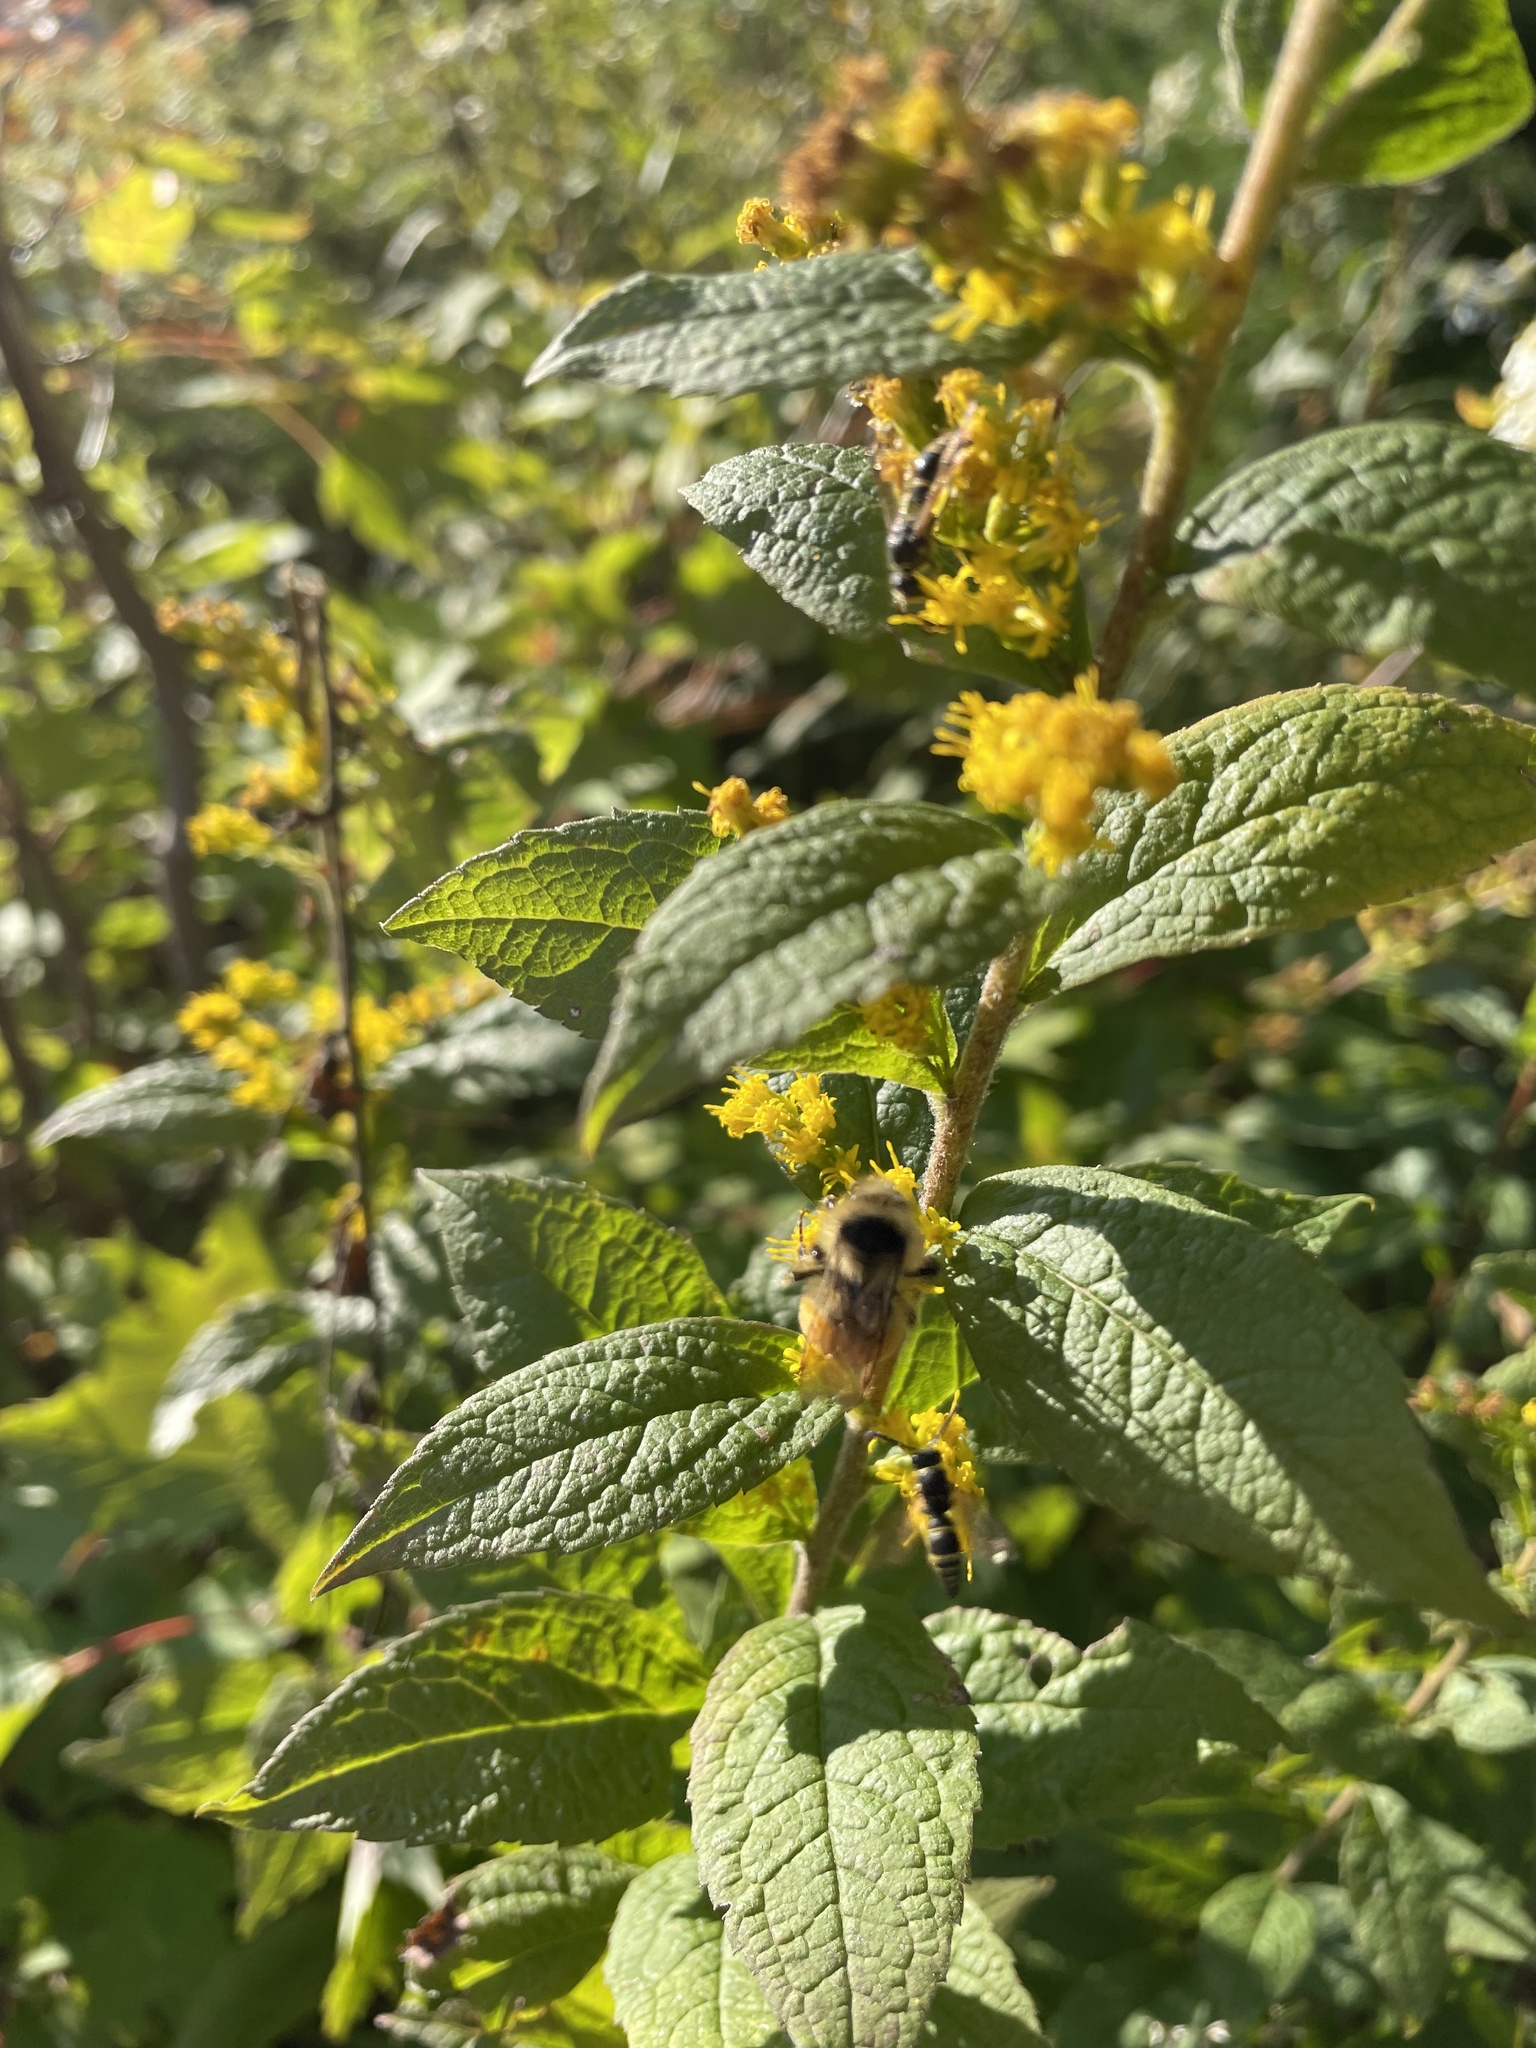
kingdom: Animalia
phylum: Arthropoda
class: Insecta
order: Hymenoptera
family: Apidae
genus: Bombus
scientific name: Bombus ternarius
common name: Tri-colored bumble bee
